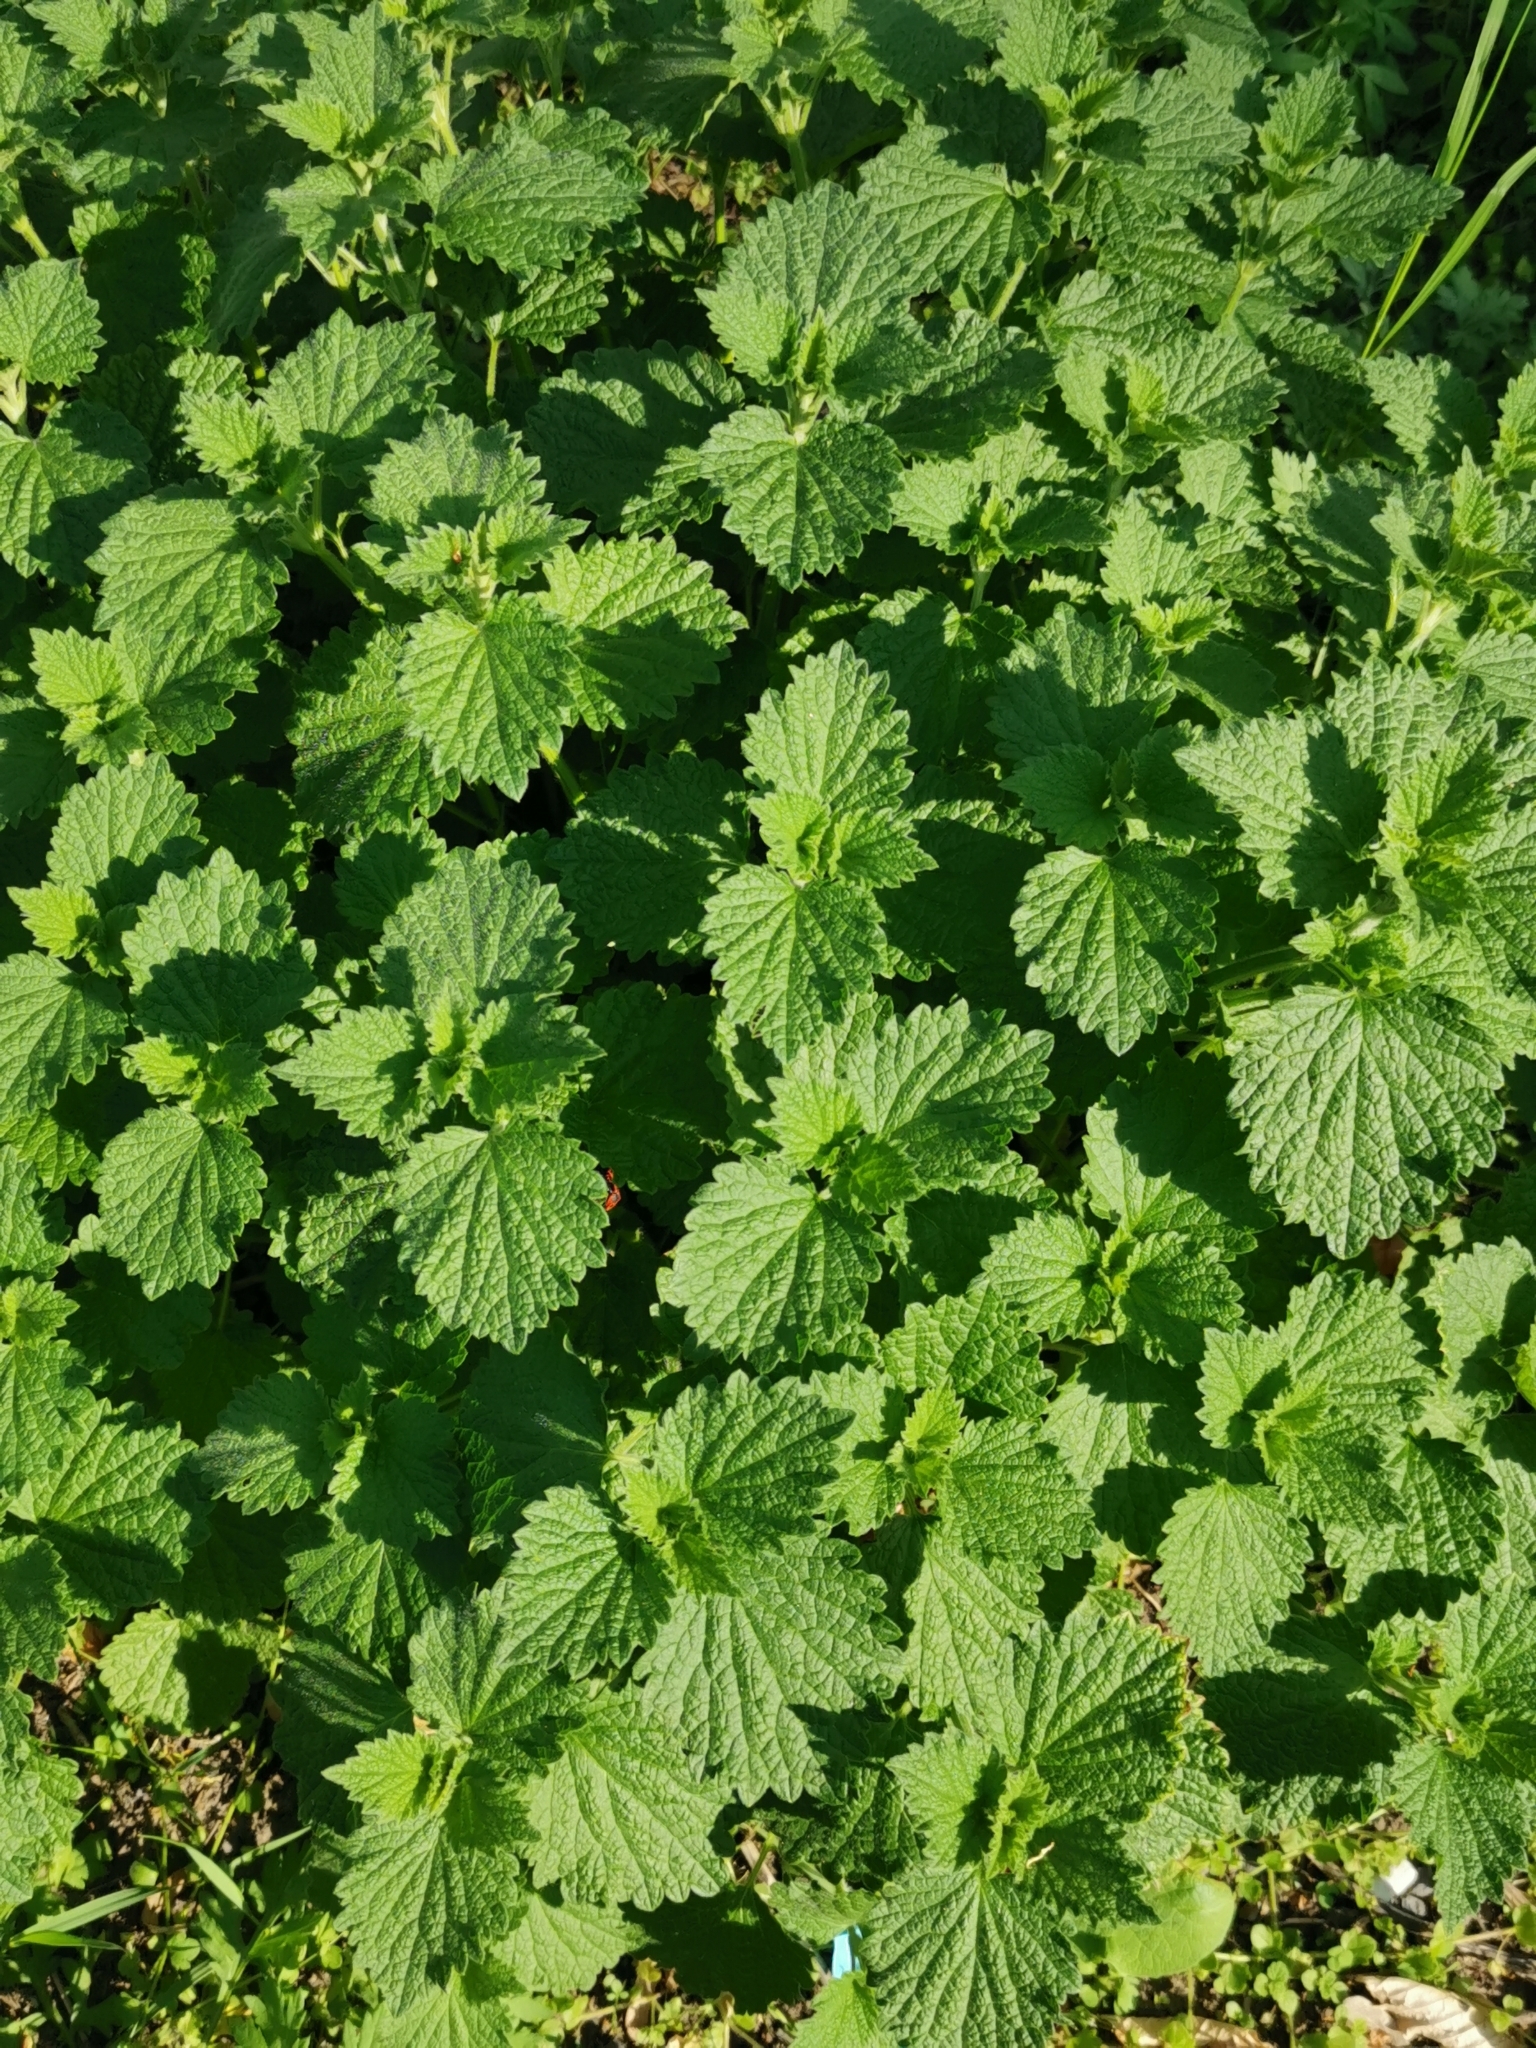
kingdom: Plantae
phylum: Tracheophyta
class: Magnoliopsida
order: Lamiales
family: Lamiaceae
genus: Ballota
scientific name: Ballota nigra
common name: Black horehound
